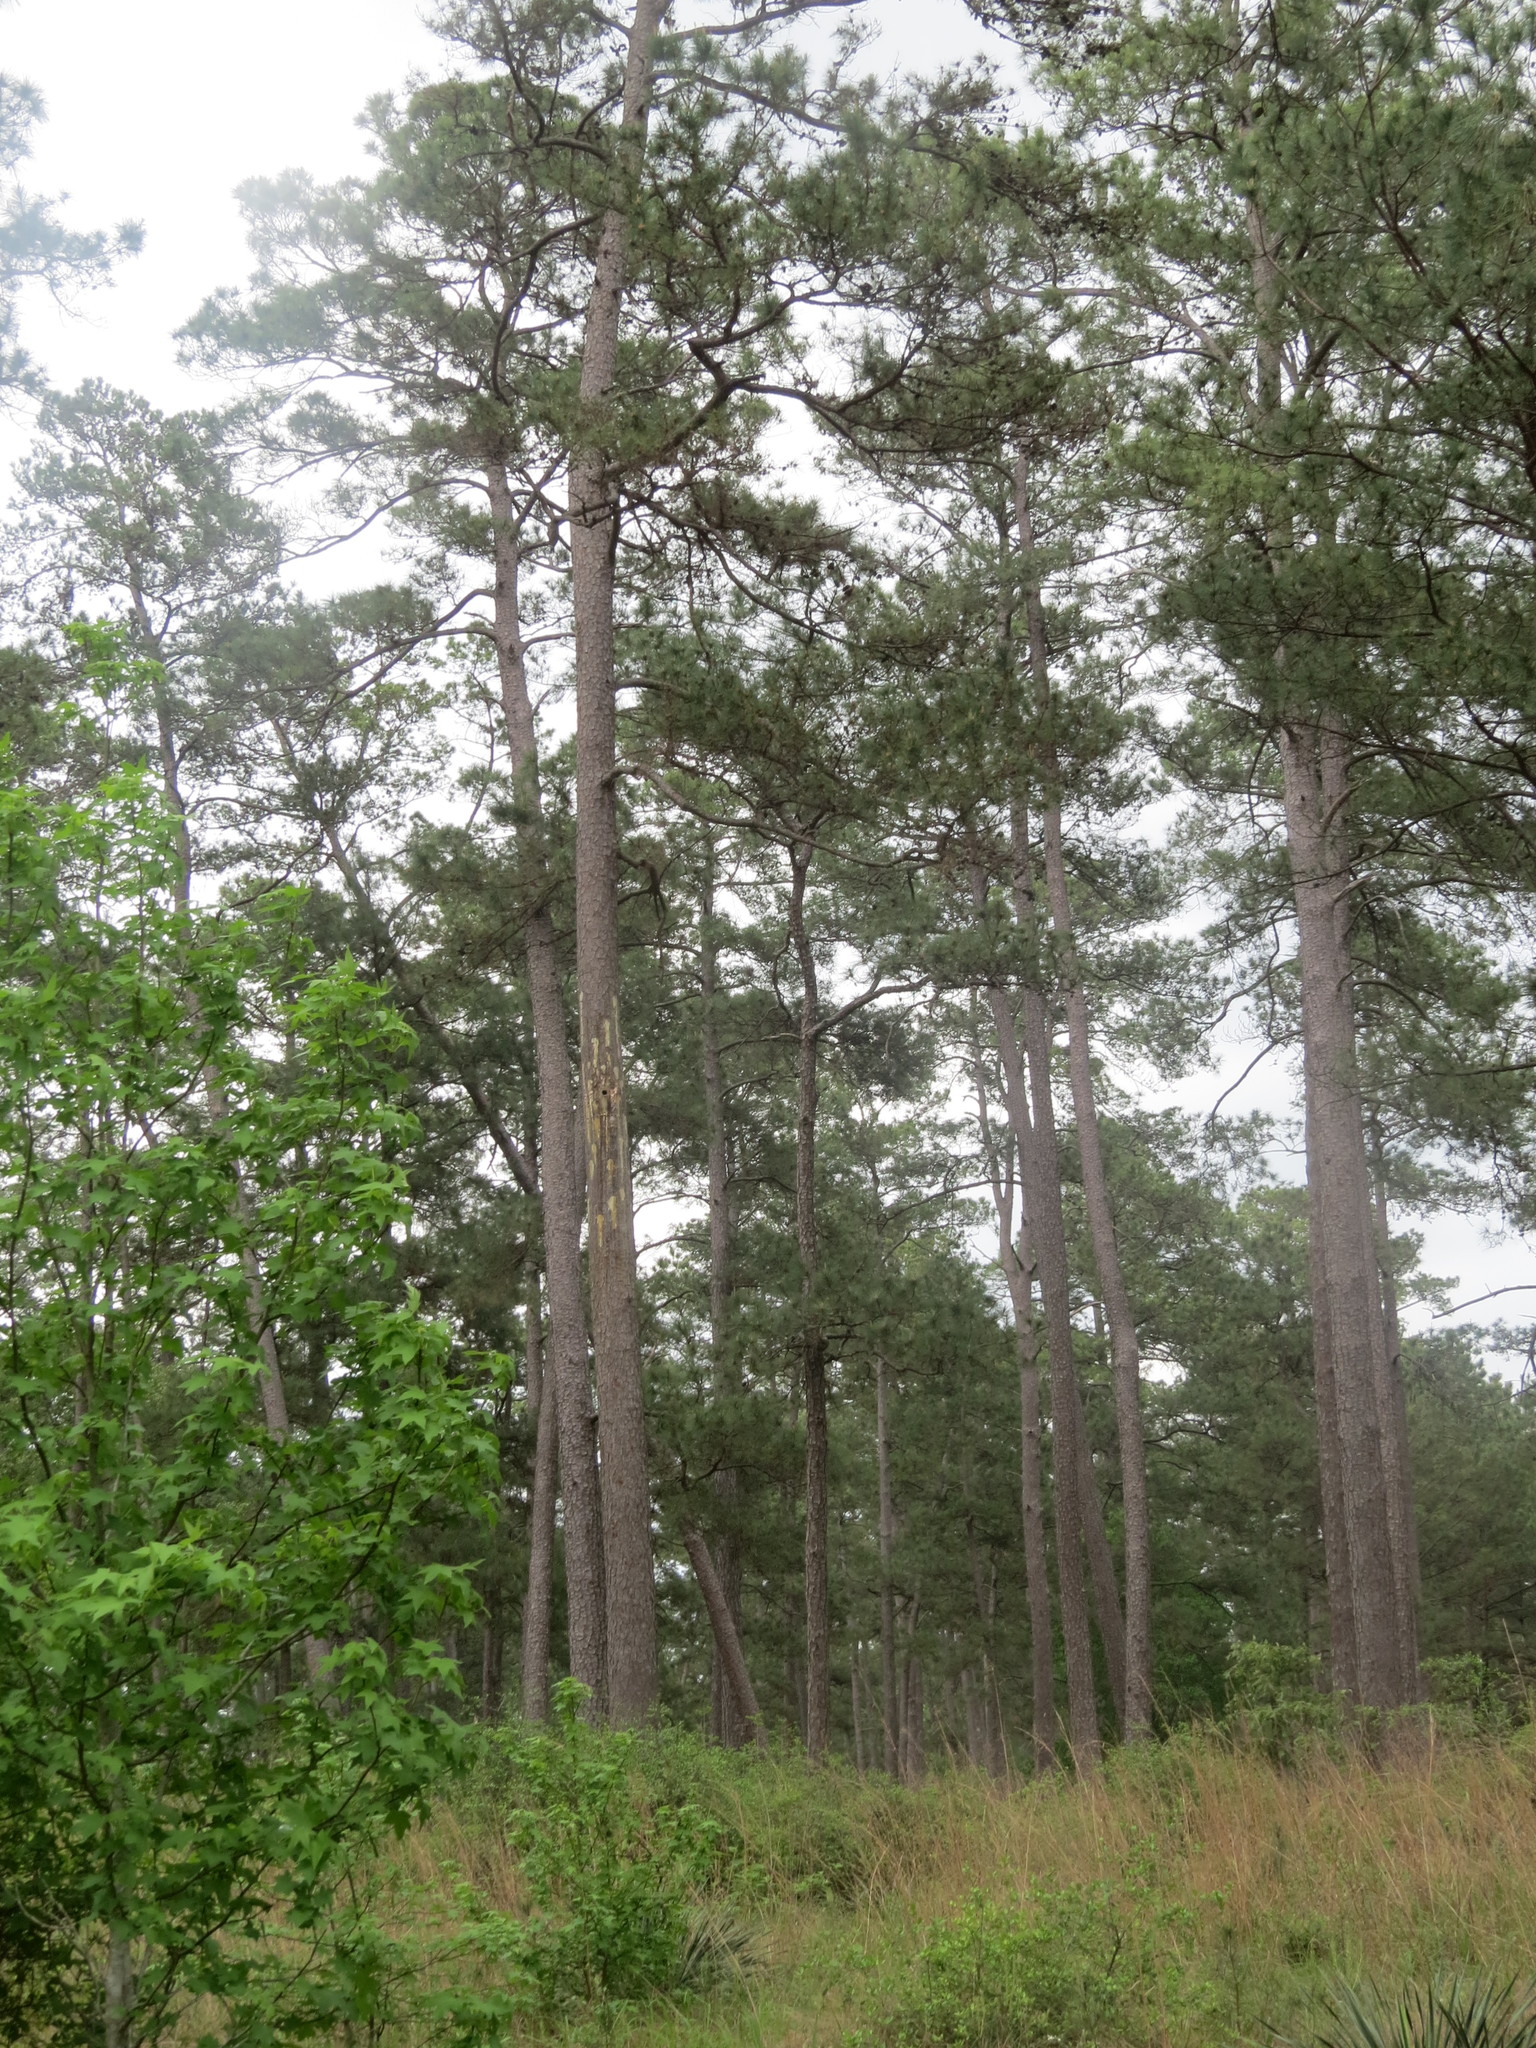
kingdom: Plantae
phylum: Tracheophyta
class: Pinopsida
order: Pinales
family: Pinaceae
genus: Pinus
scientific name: Pinus taeda
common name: Loblolly pine
